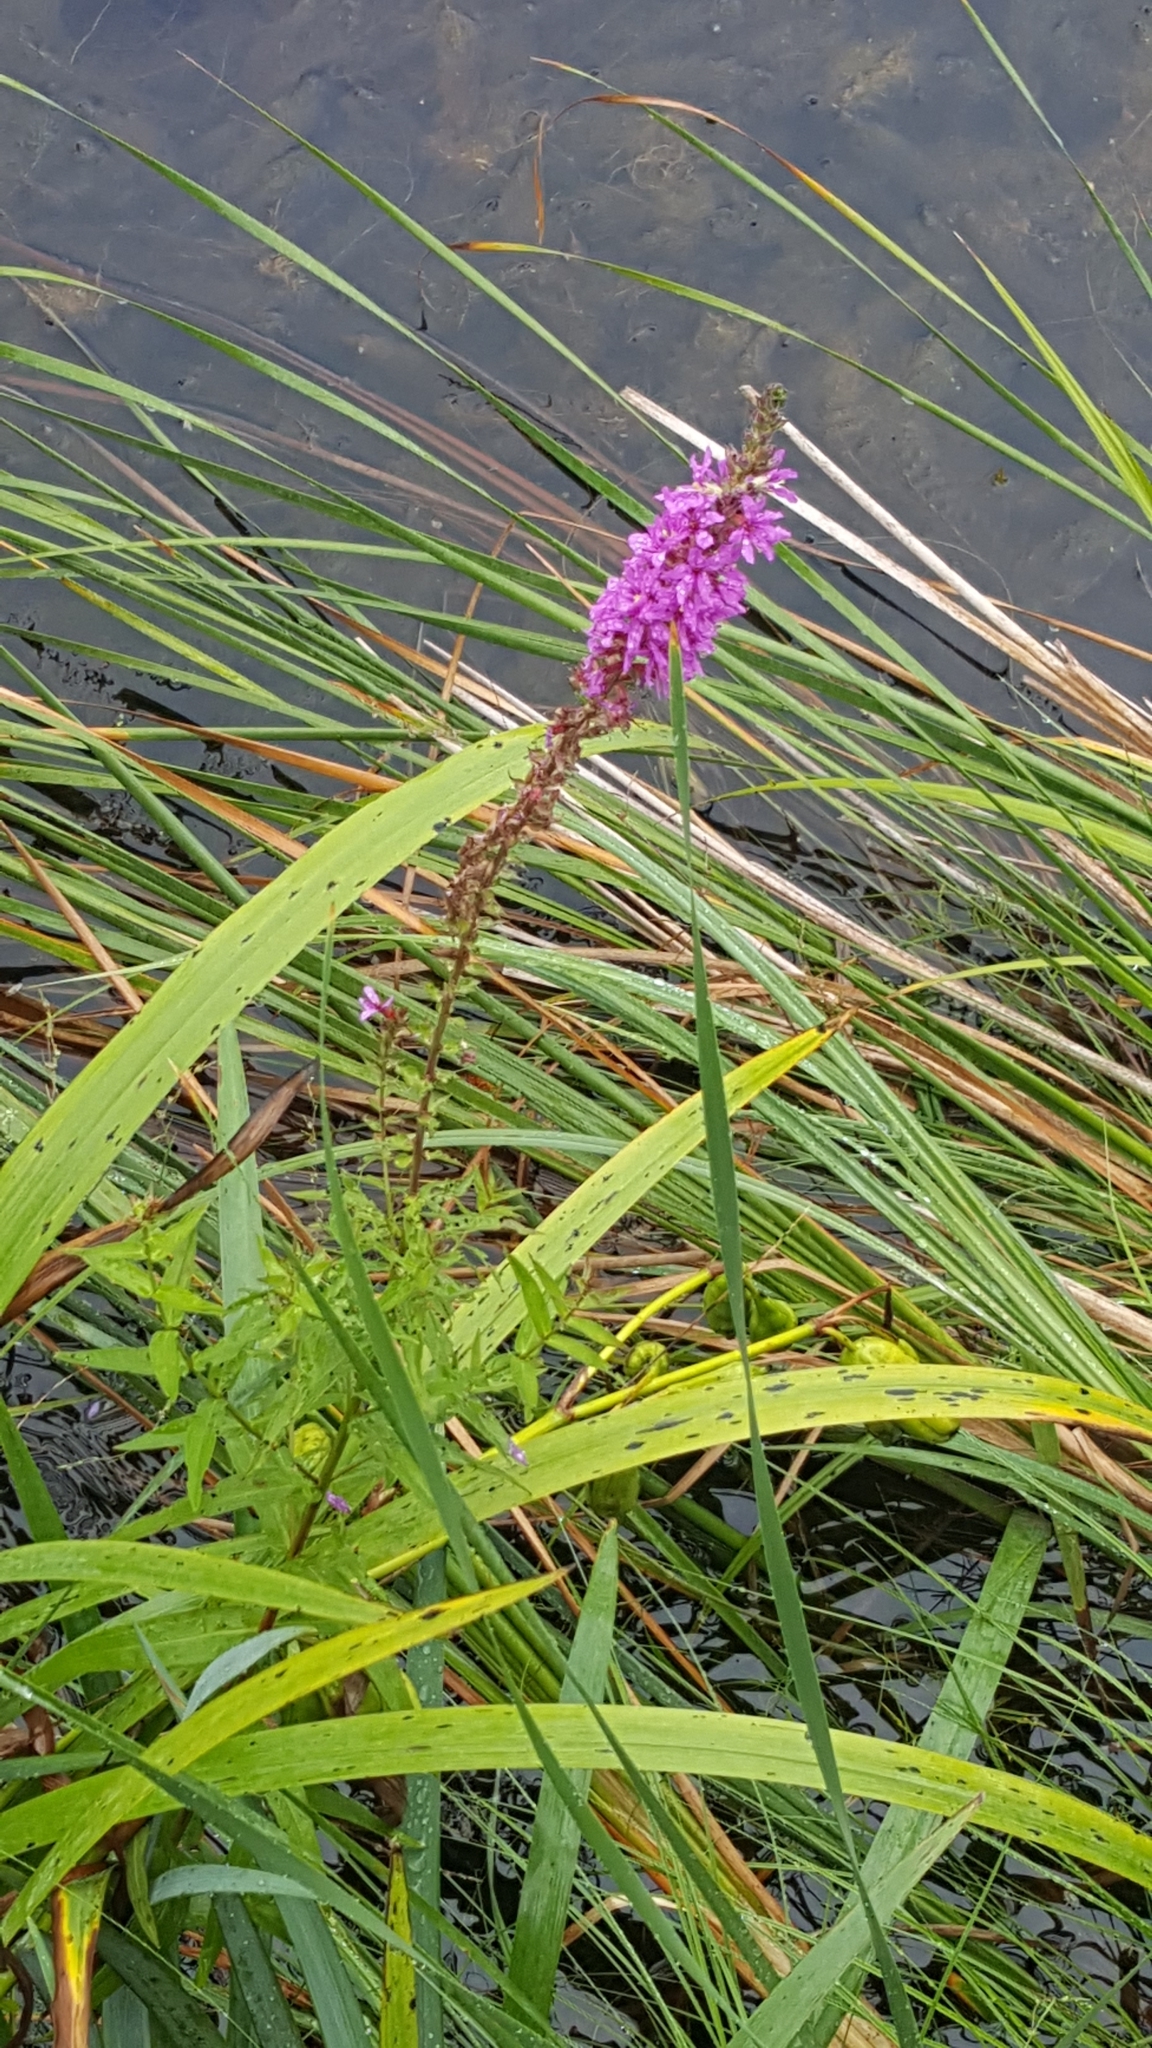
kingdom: Plantae
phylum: Tracheophyta
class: Magnoliopsida
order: Myrtales
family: Lythraceae
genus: Lythrum
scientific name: Lythrum salicaria
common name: Purple loosestrife
